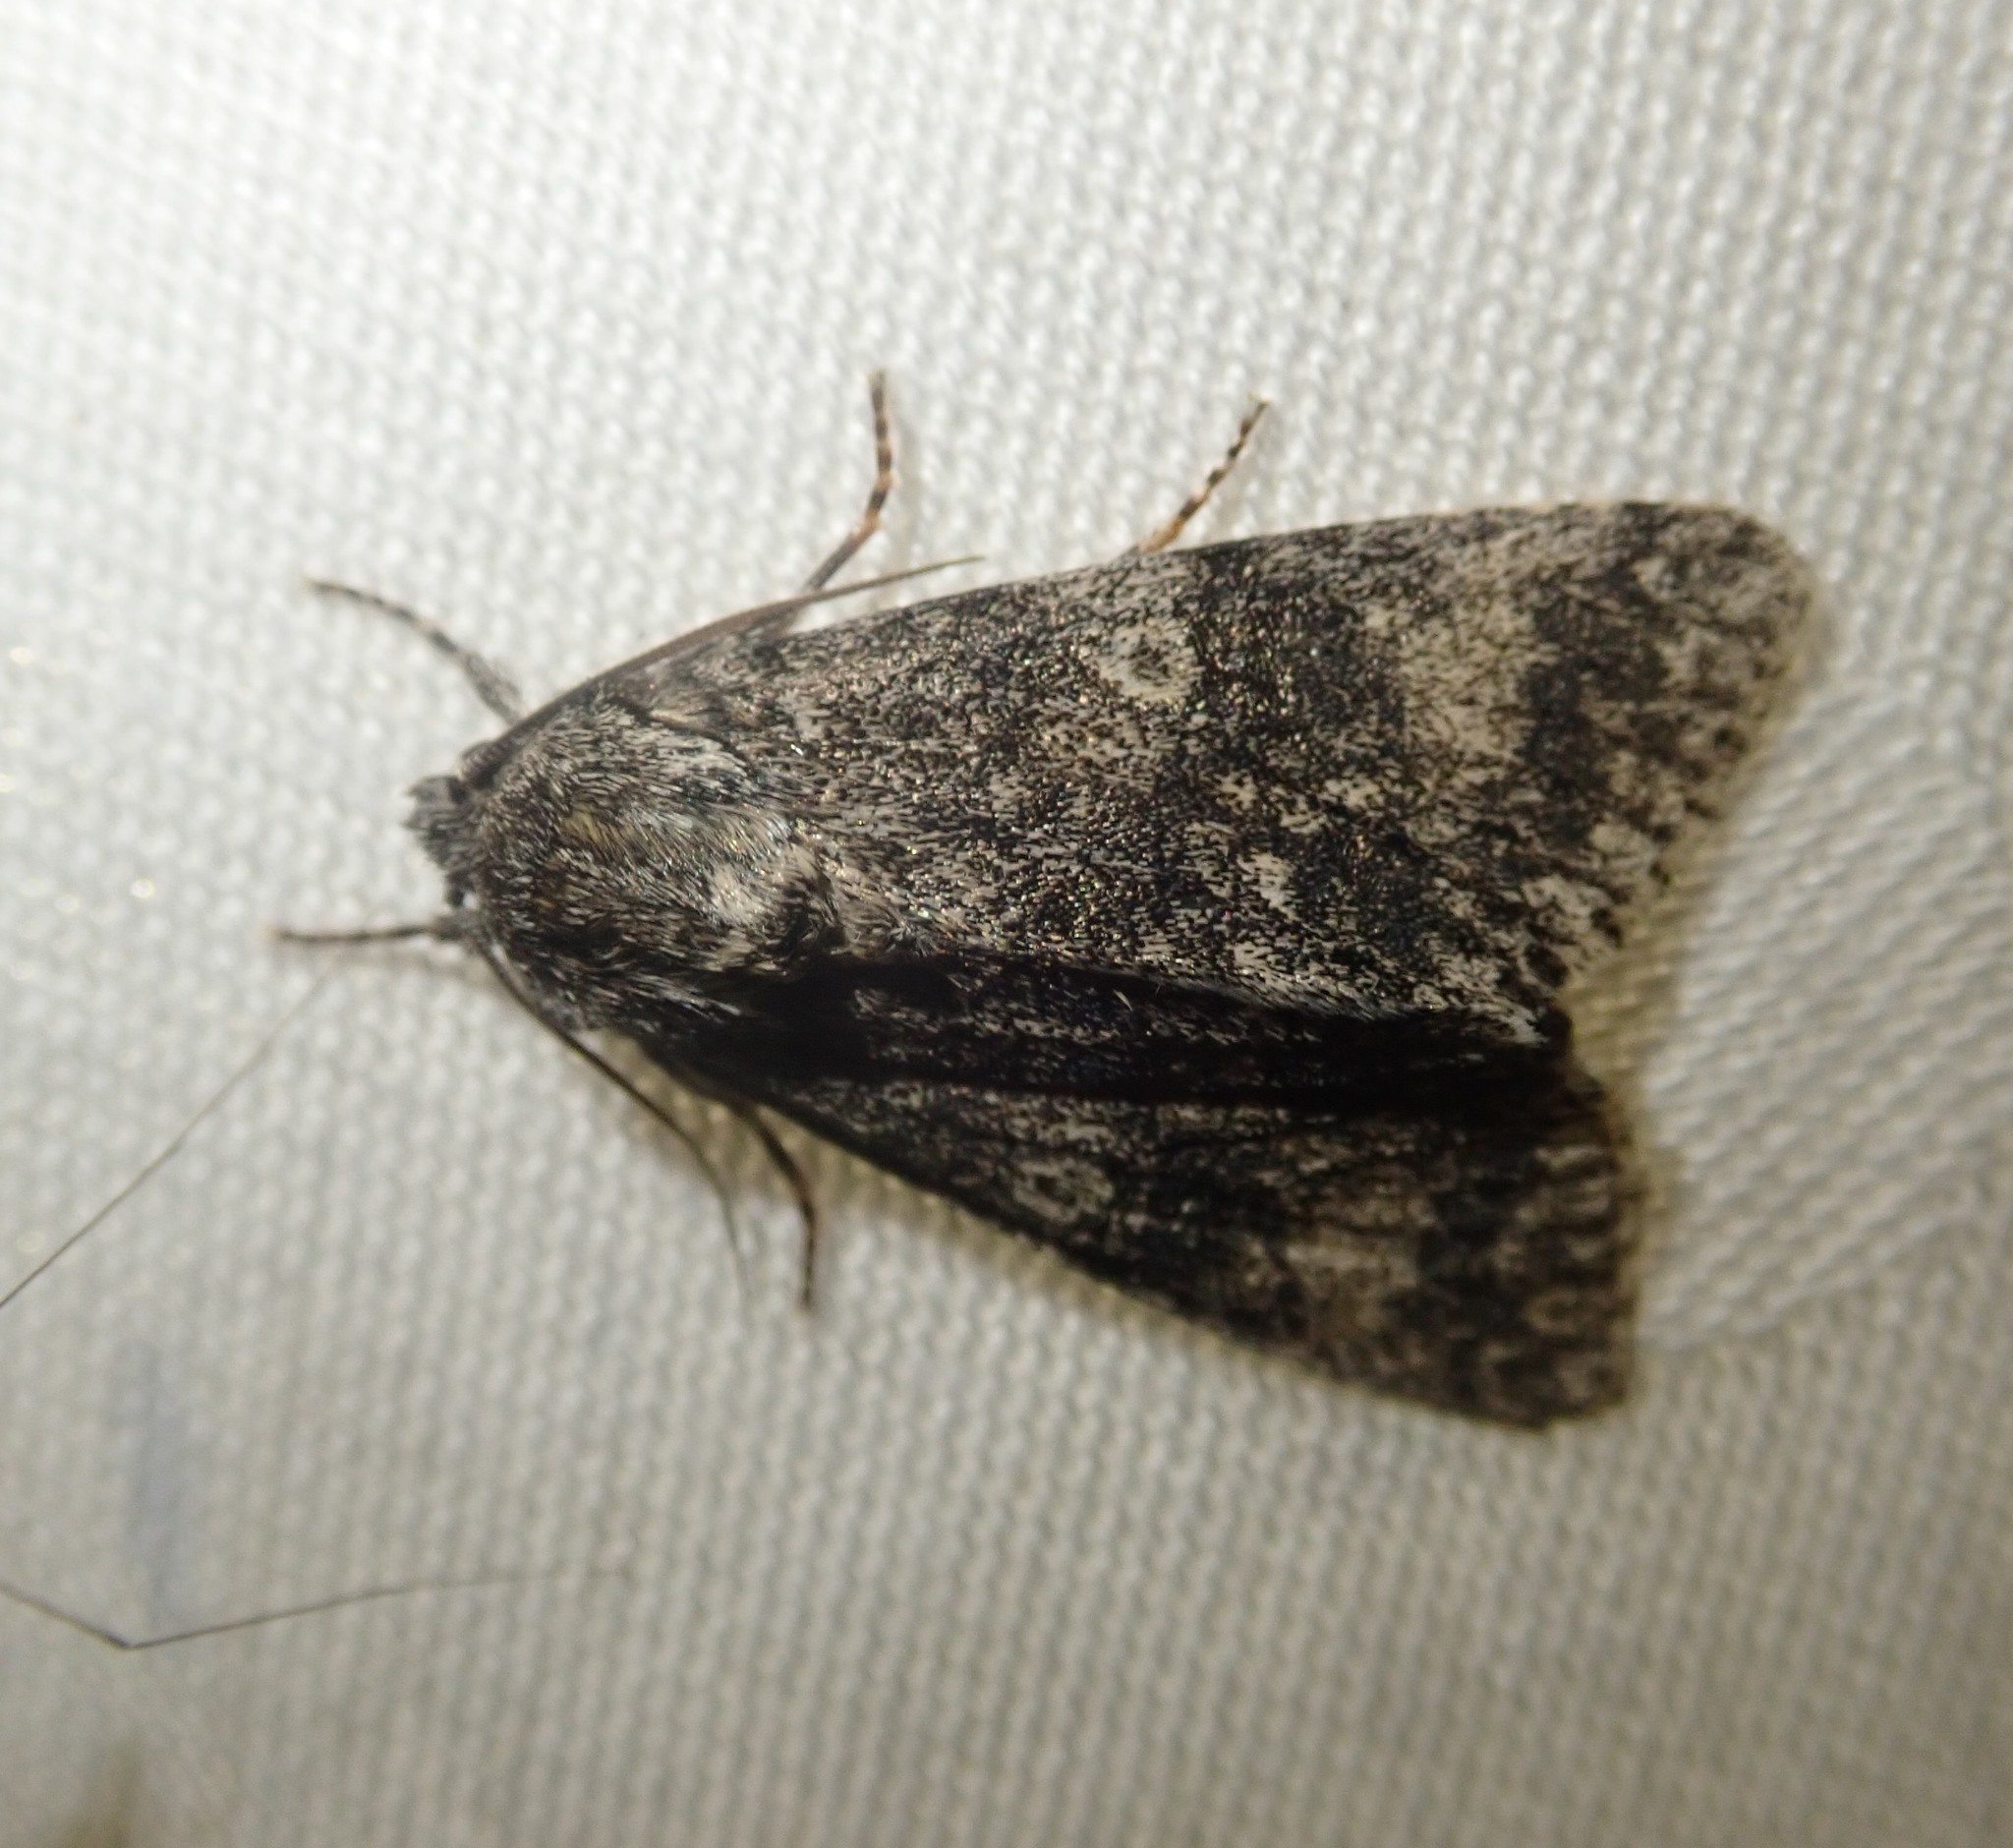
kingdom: Animalia
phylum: Arthropoda
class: Insecta
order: Lepidoptera
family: Noctuidae
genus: Acronicta
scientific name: Acronicta megacephala
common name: Poplar grey
